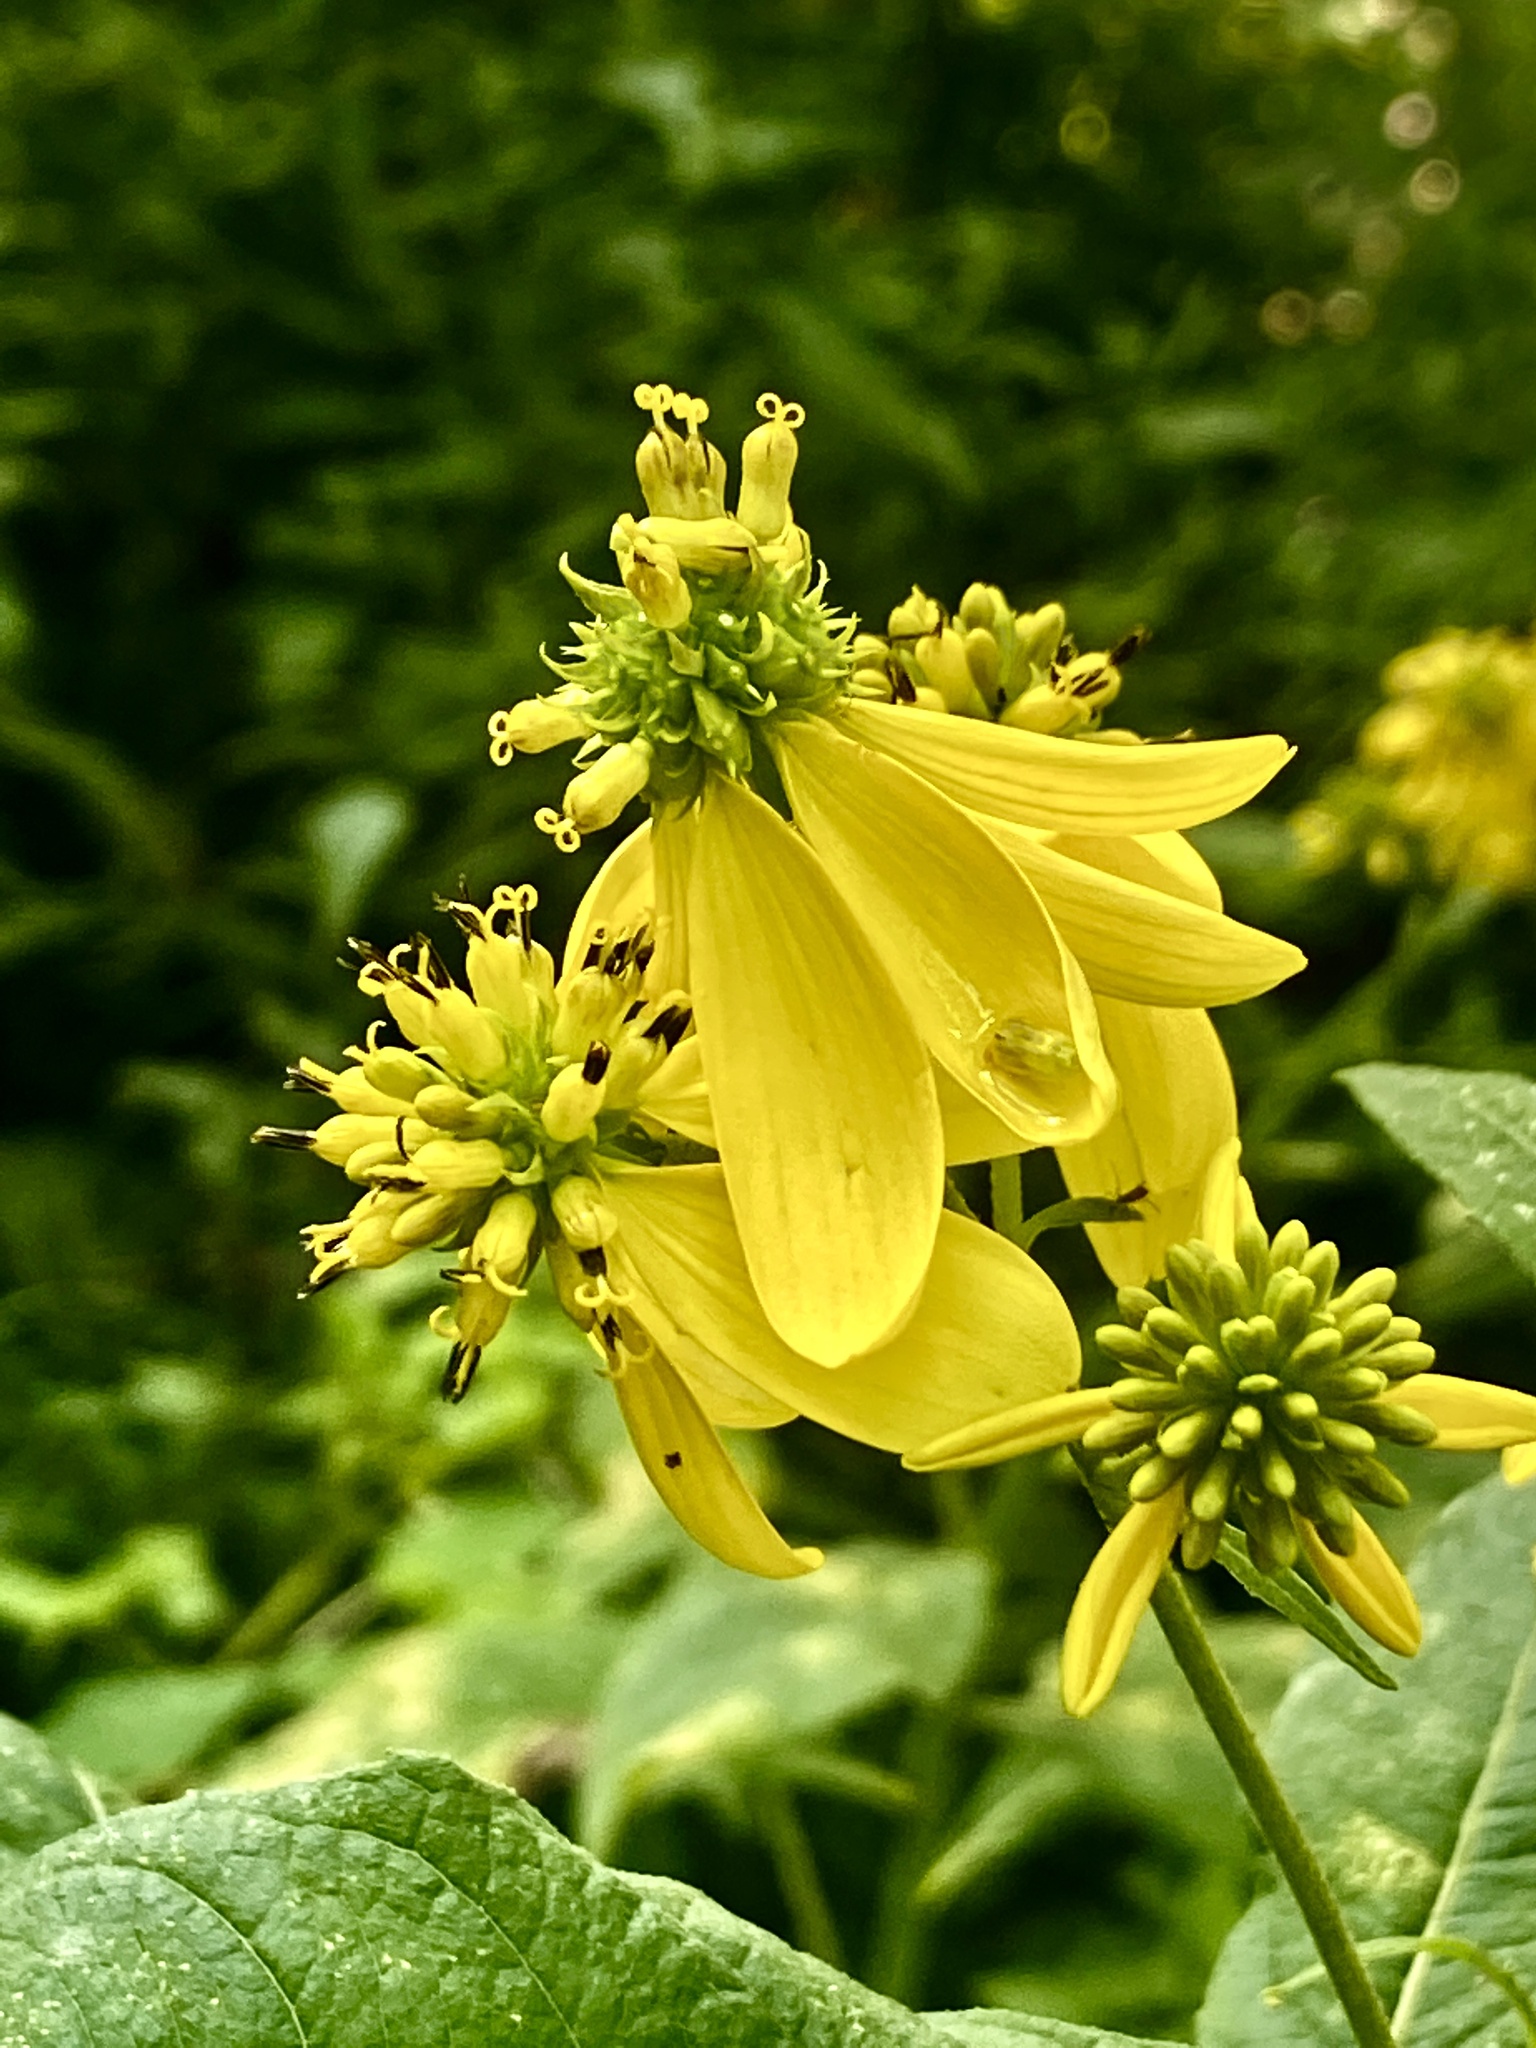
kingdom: Plantae
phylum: Tracheophyta
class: Magnoliopsida
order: Asterales
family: Asteraceae
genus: Verbesina
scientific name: Verbesina alternifolia
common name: Wingstem
